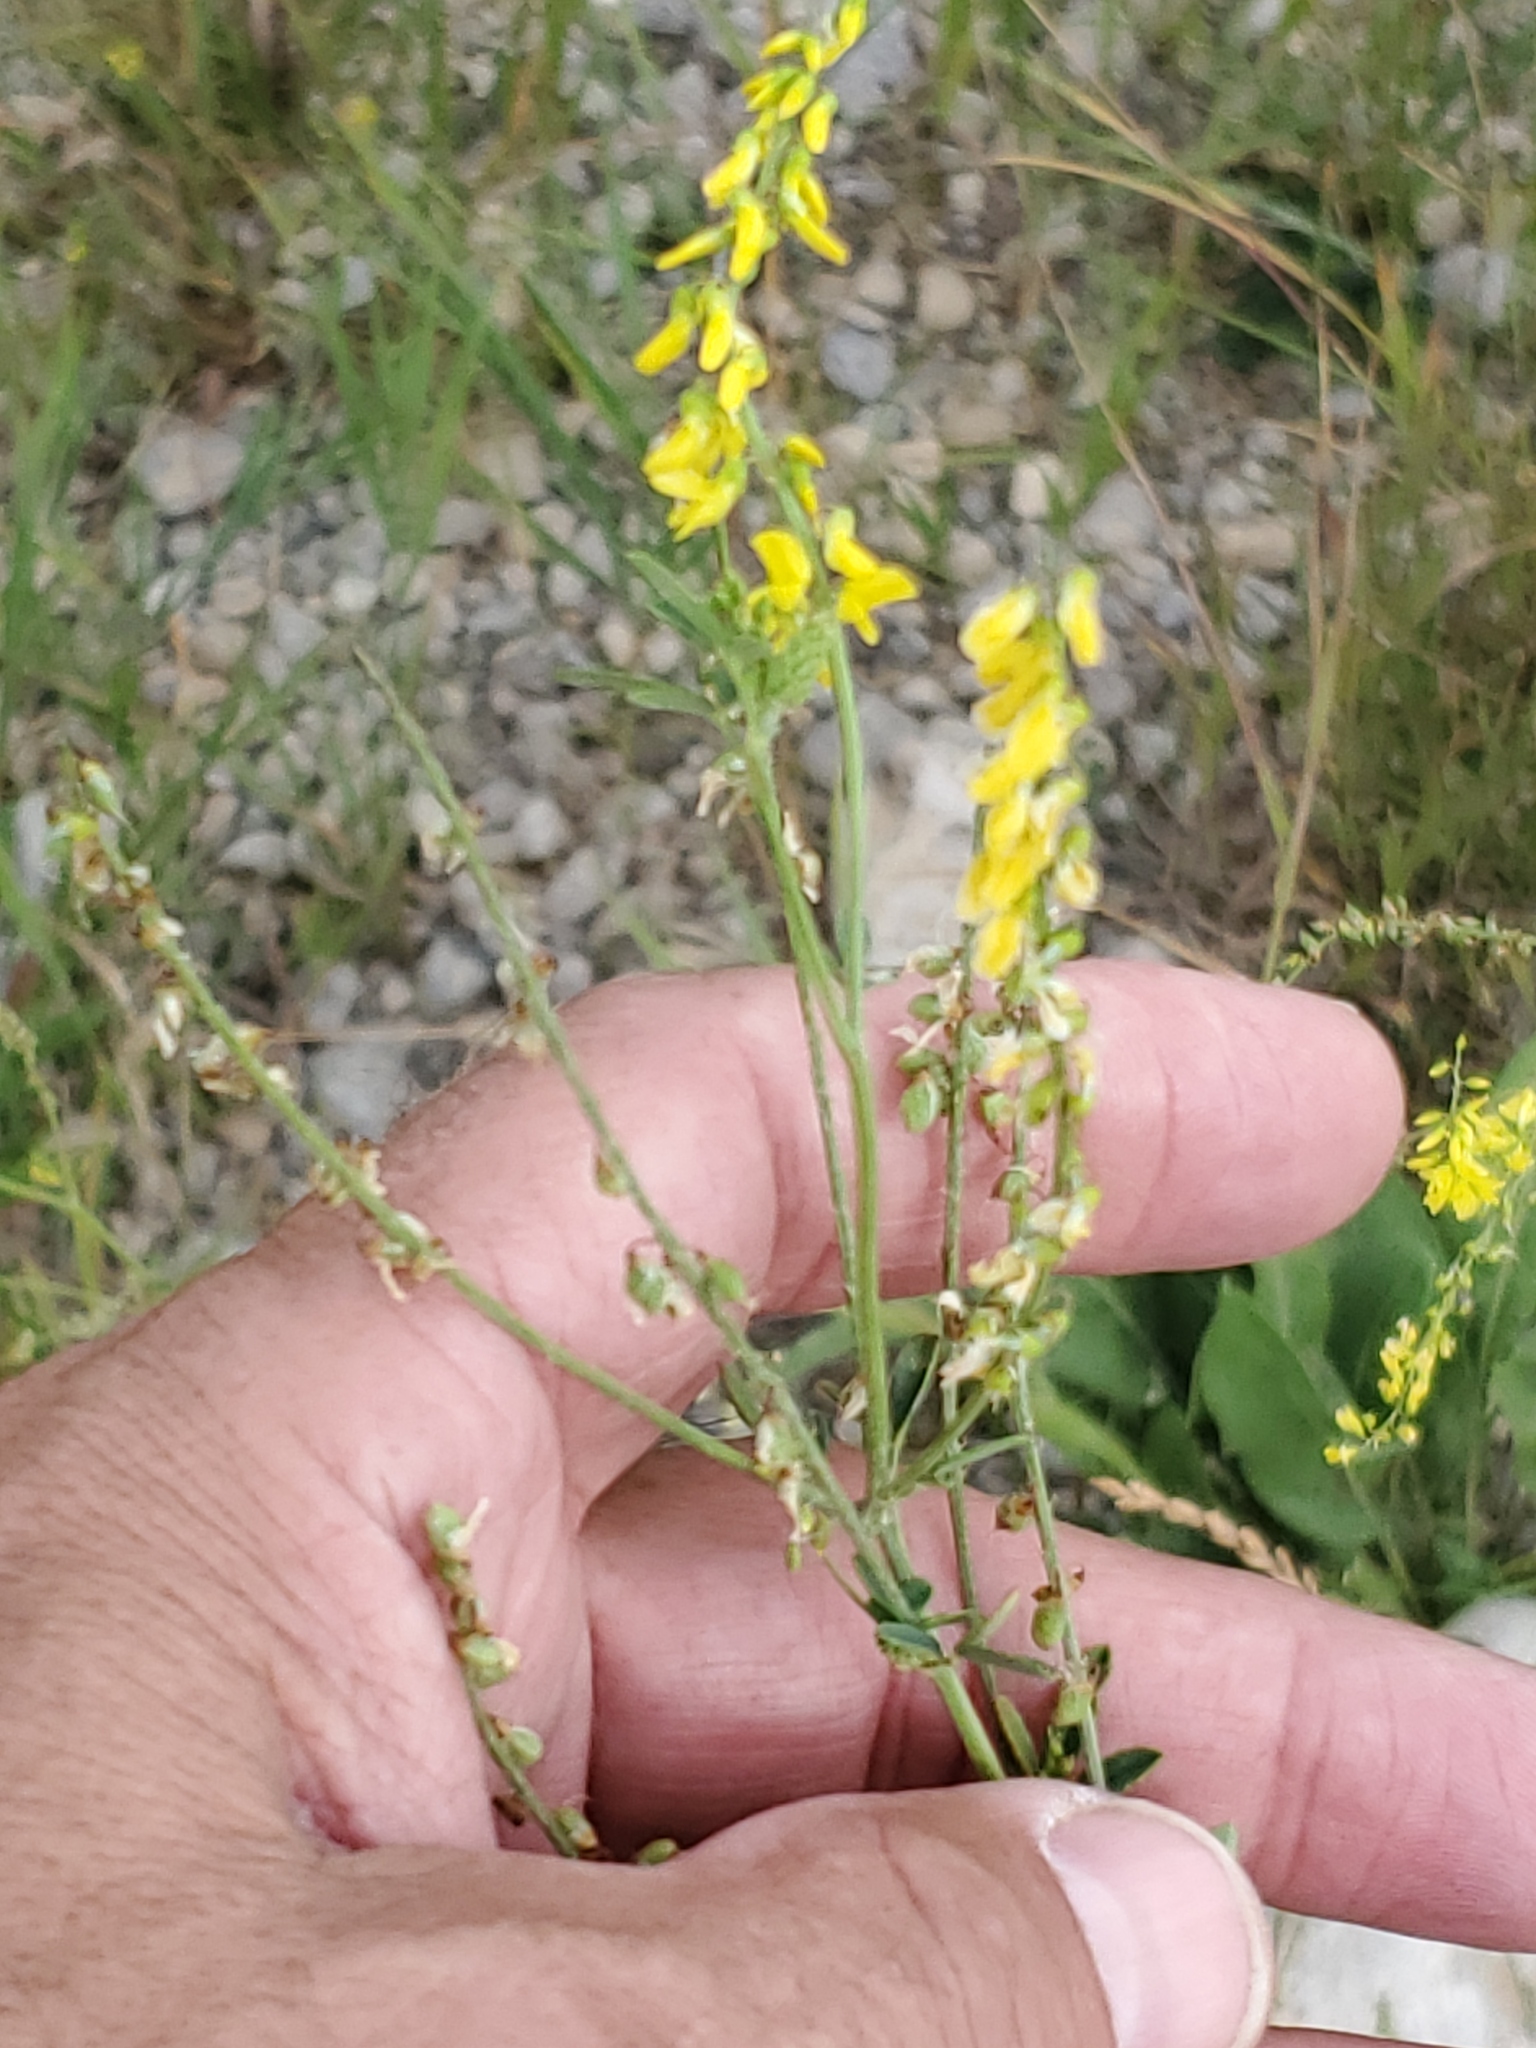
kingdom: Plantae
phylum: Tracheophyta
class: Magnoliopsida
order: Fabales
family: Fabaceae
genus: Melilotus
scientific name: Melilotus officinalis
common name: Sweetclover
